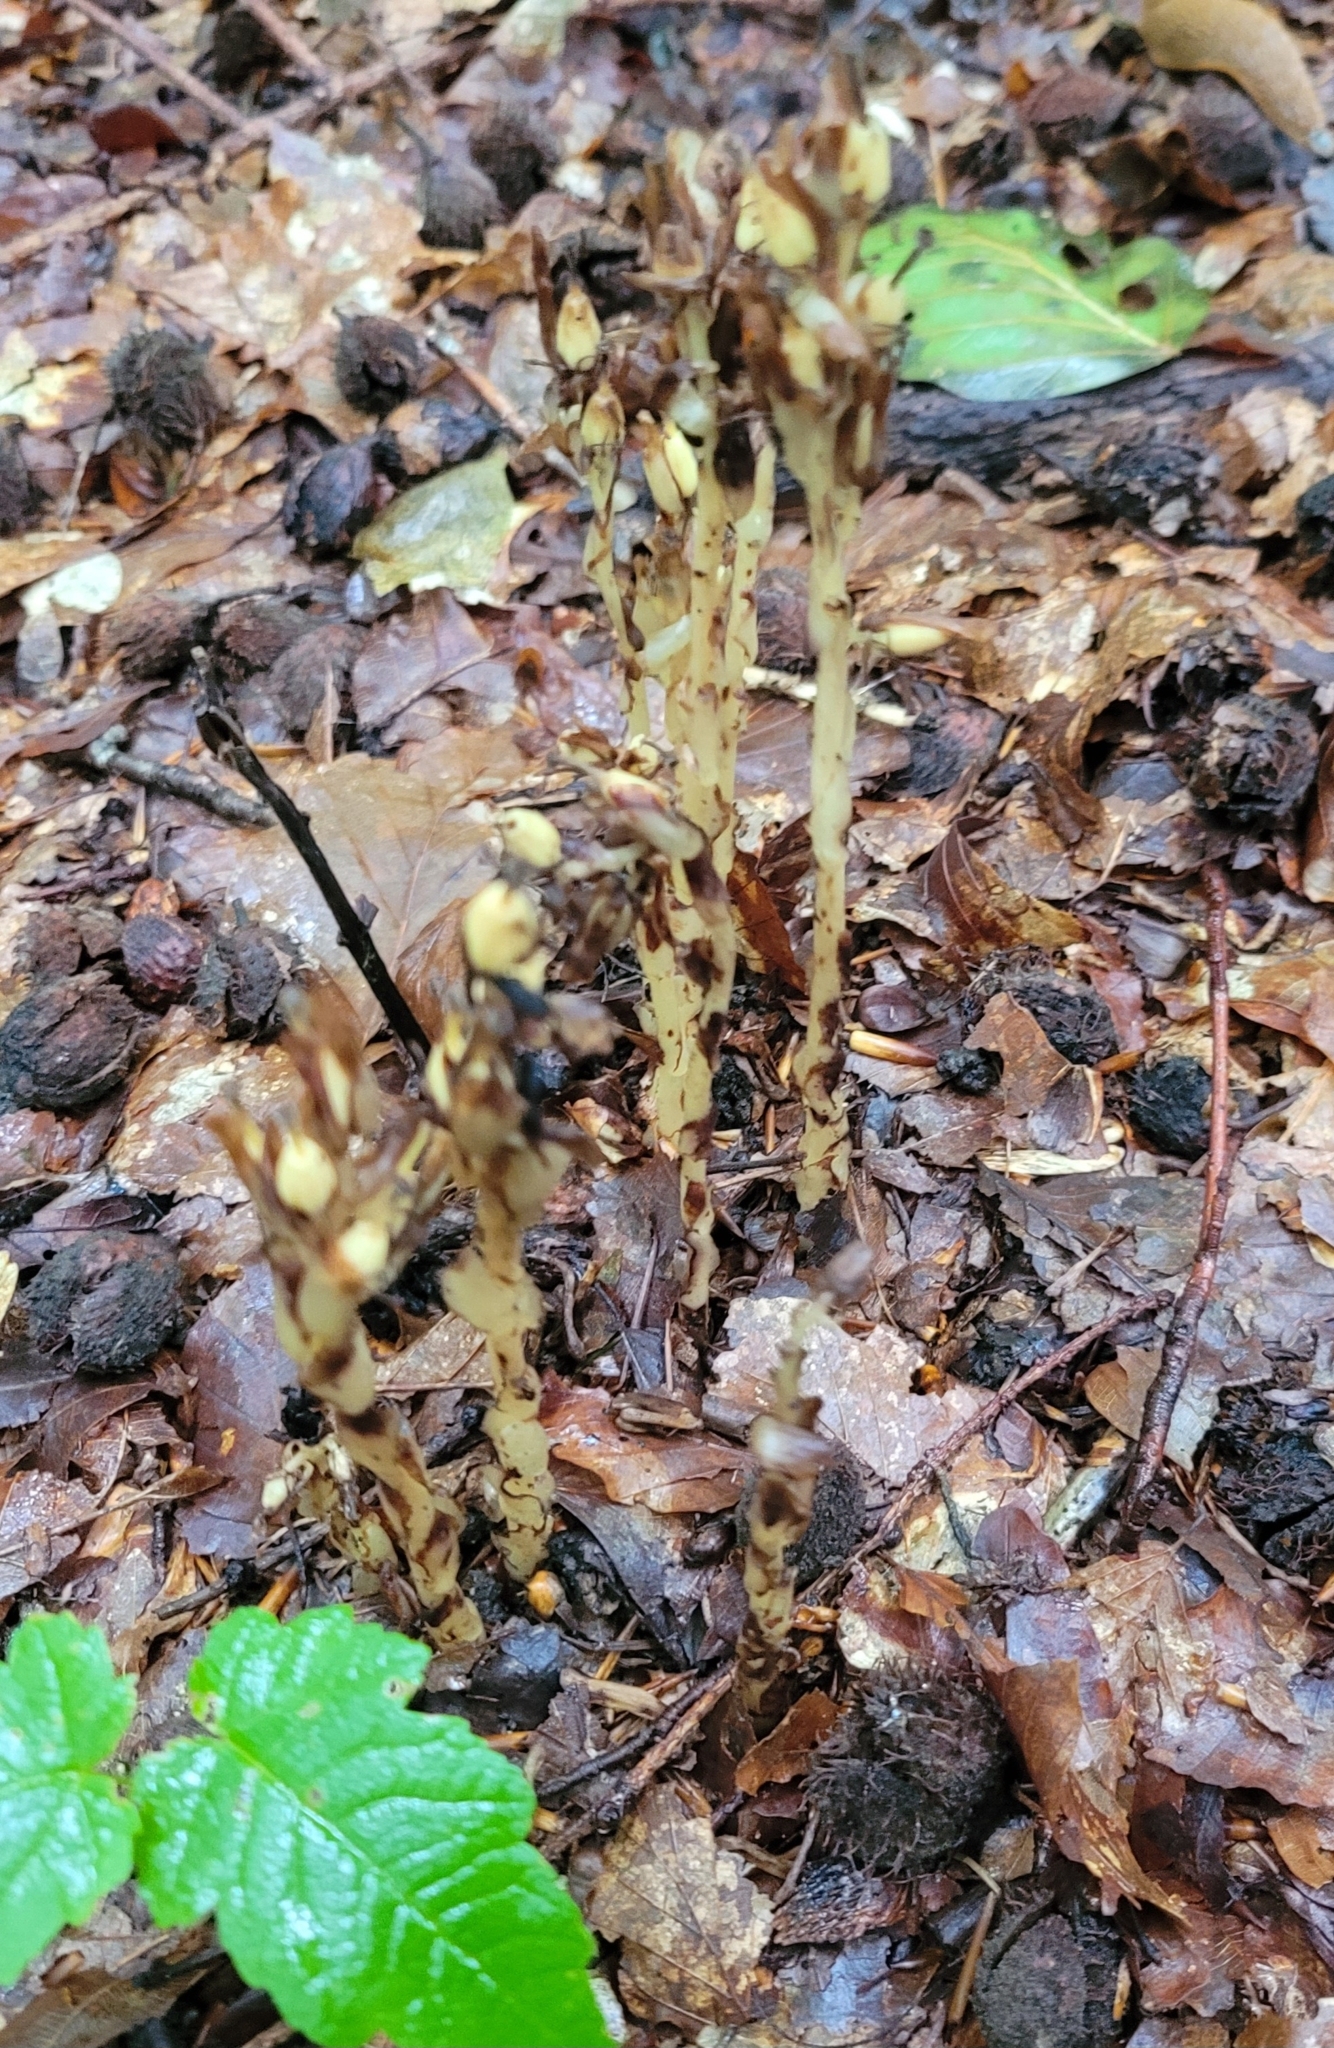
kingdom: Plantae
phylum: Tracheophyta
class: Magnoliopsida
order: Ericales
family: Ericaceae
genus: Hypopitys
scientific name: Hypopitys monotropa
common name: Yellow bird's-nest
